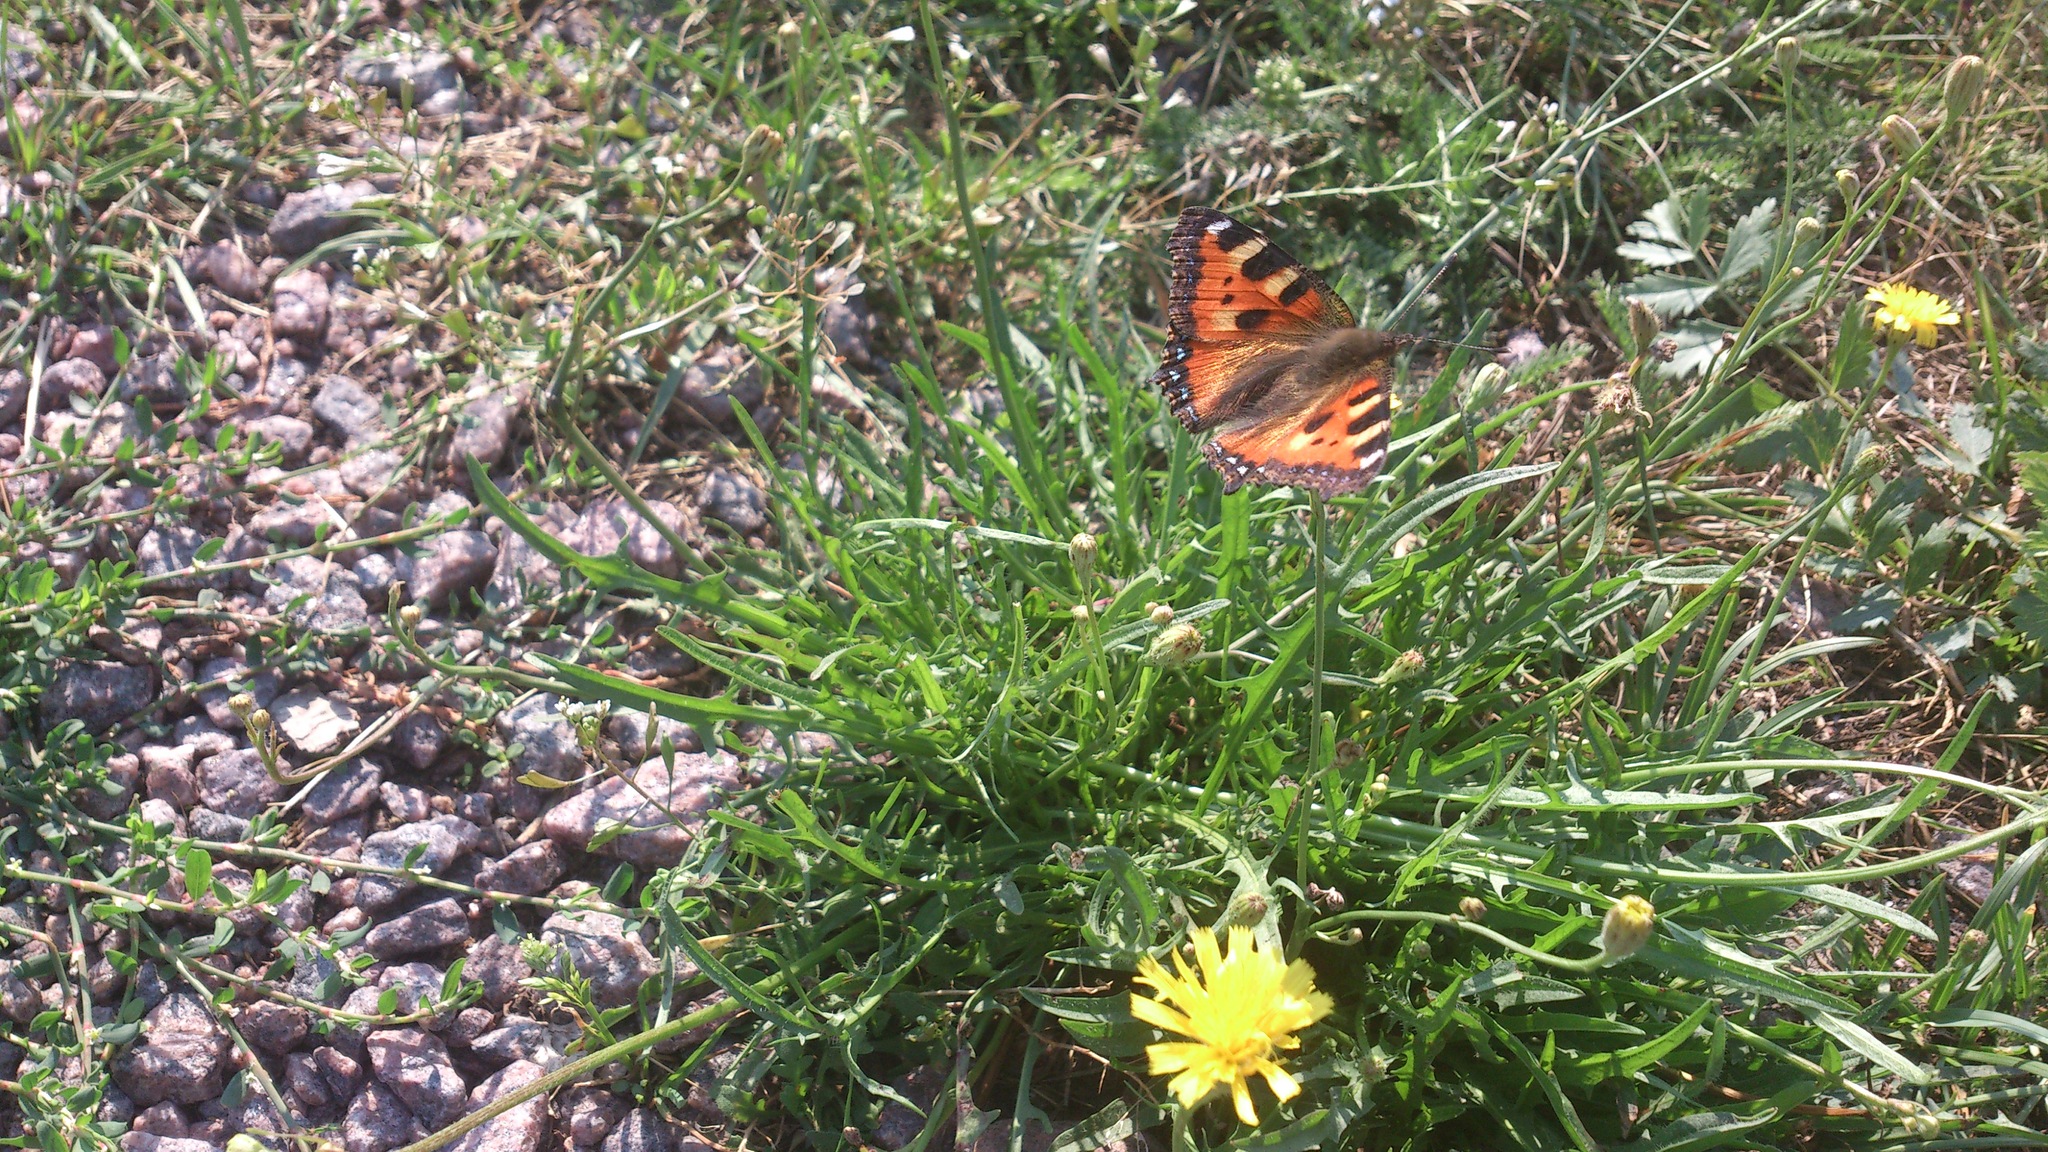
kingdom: Animalia
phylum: Arthropoda
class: Insecta
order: Lepidoptera
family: Nymphalidae
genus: Aglais
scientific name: Aglais urticae
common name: Small tortoiseshell
